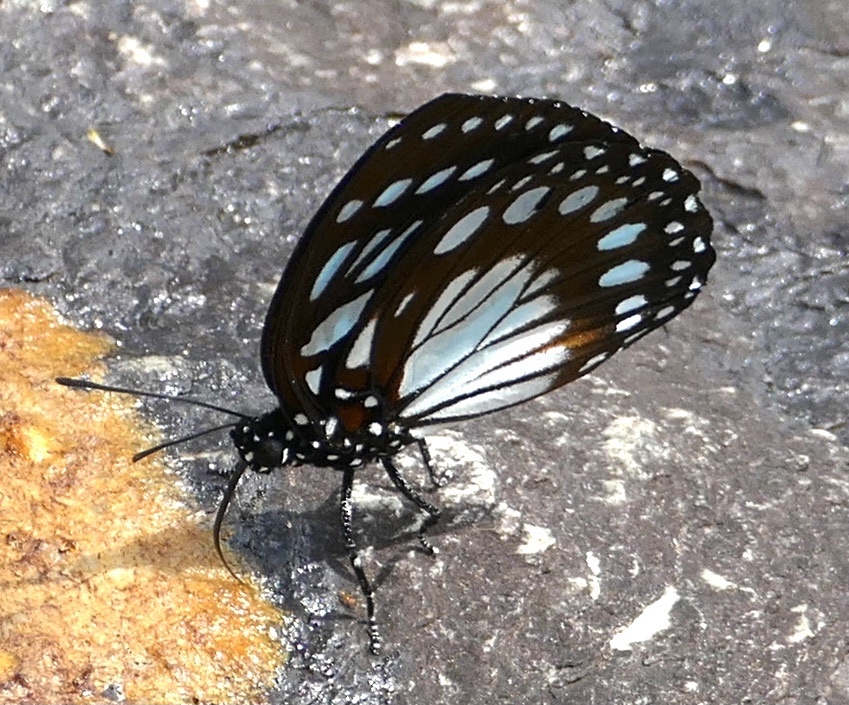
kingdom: Animalia
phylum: Arthropoda
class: Insecta
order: Lepidoptera
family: Nymphalidae
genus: Charaxes
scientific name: Charaxes
